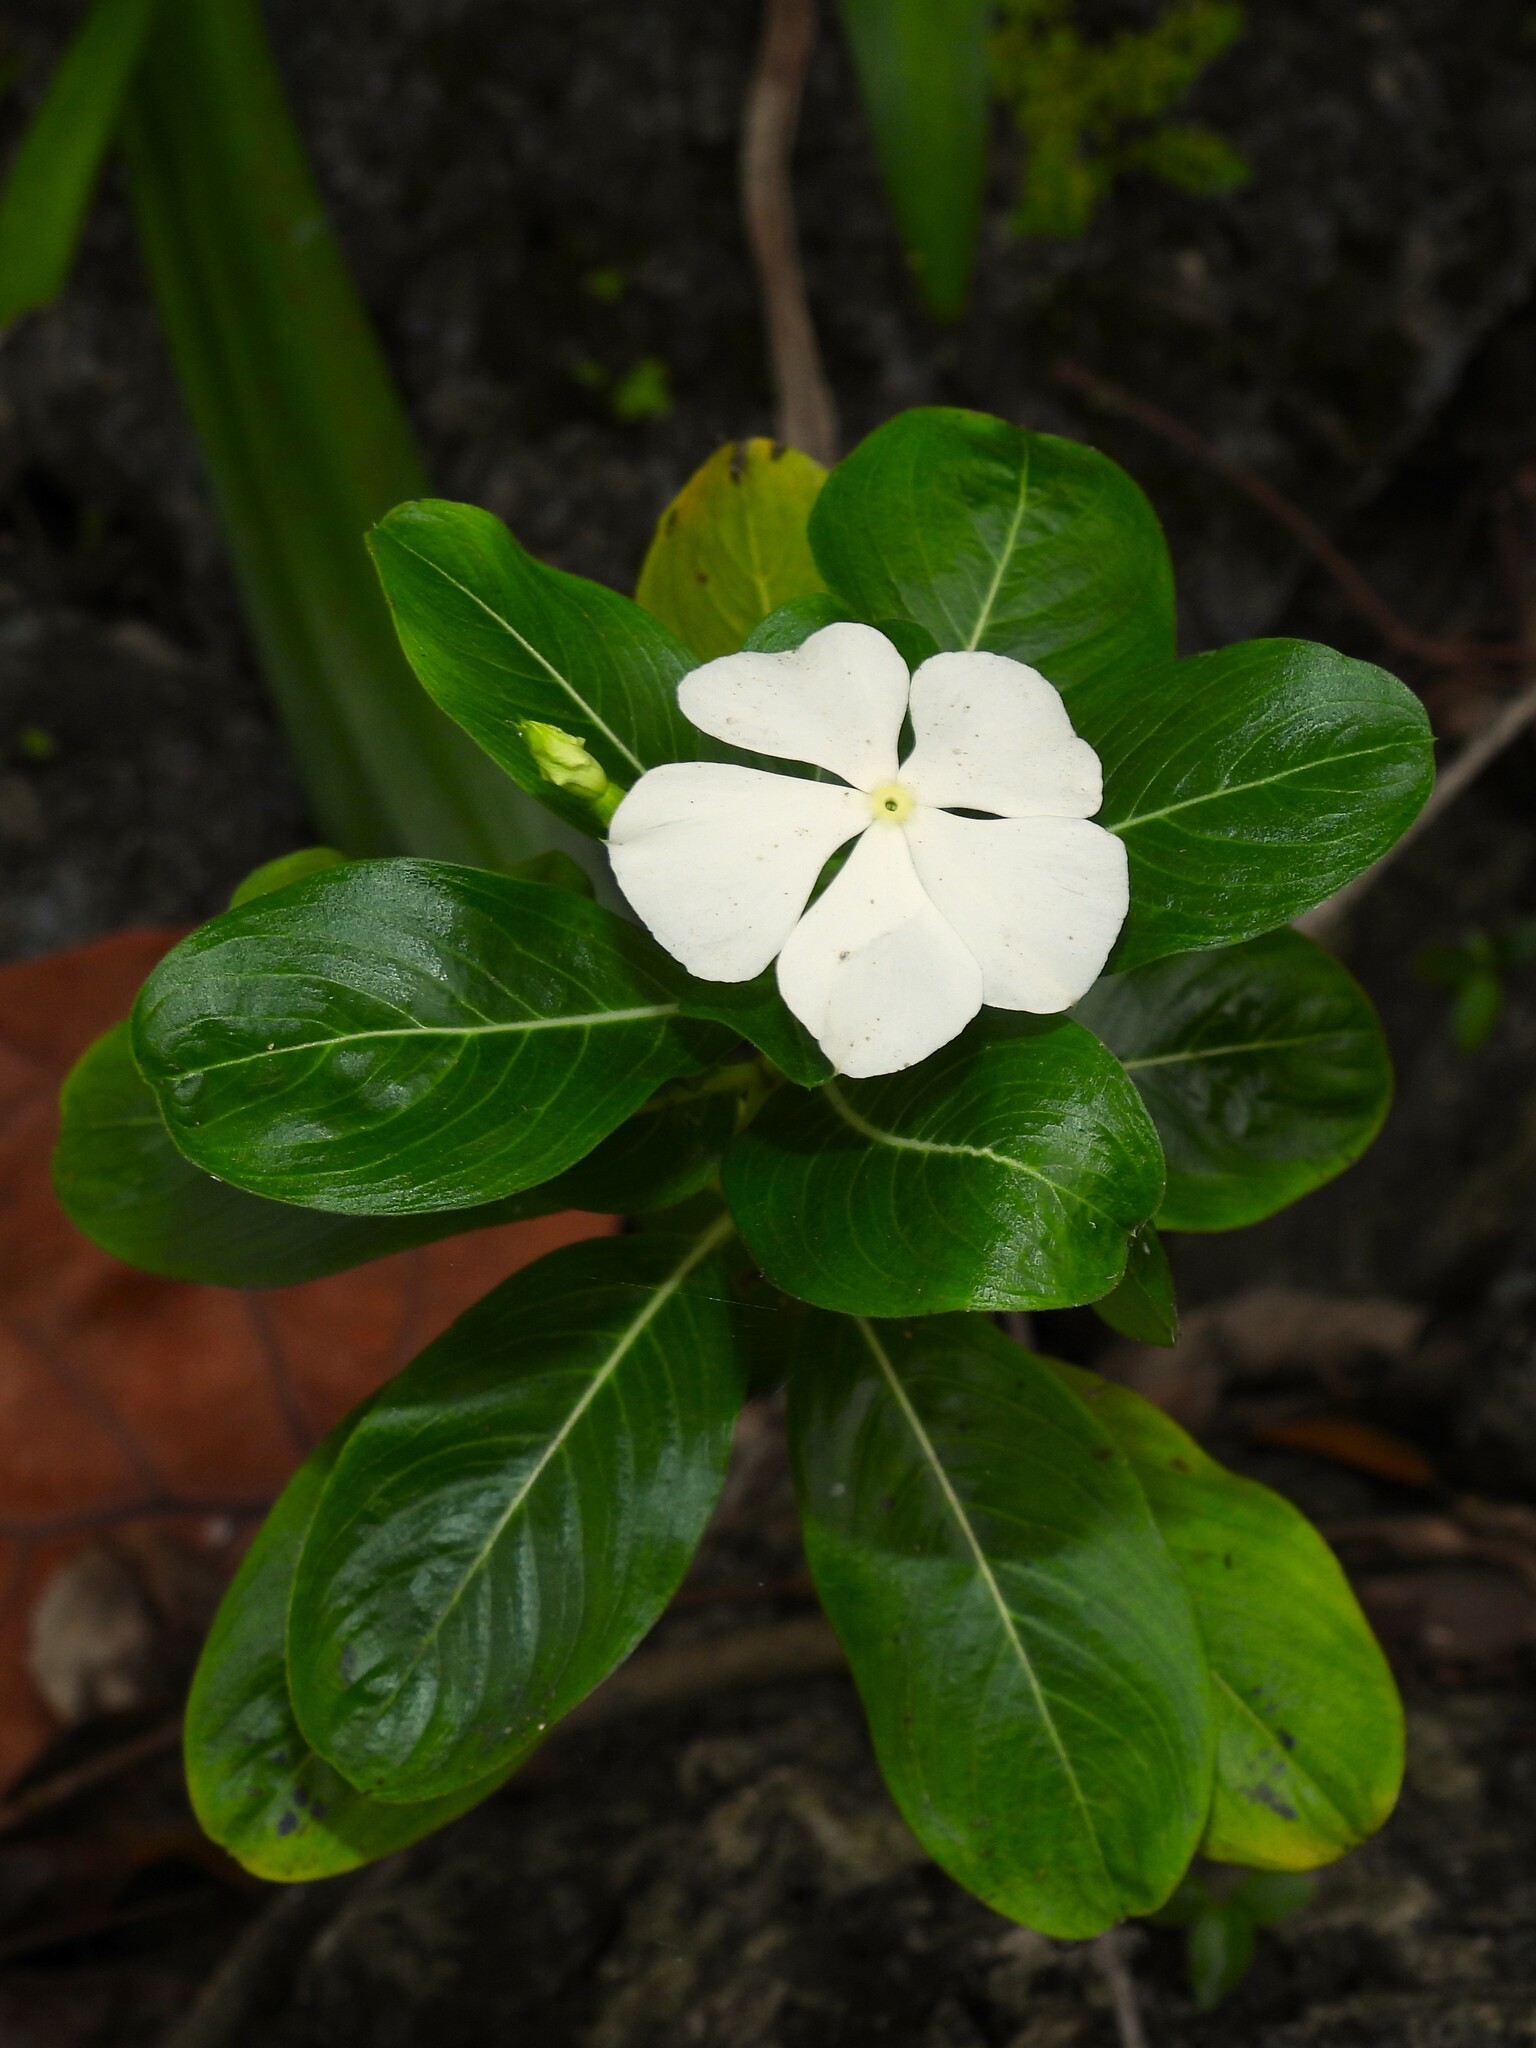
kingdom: Plantae
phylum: Tracheophyta
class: Magnoliopsida
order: Gentianales
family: Apocynaceae
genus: Catharanthus
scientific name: Catharanthus roseus
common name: Madagascar periwinkle
